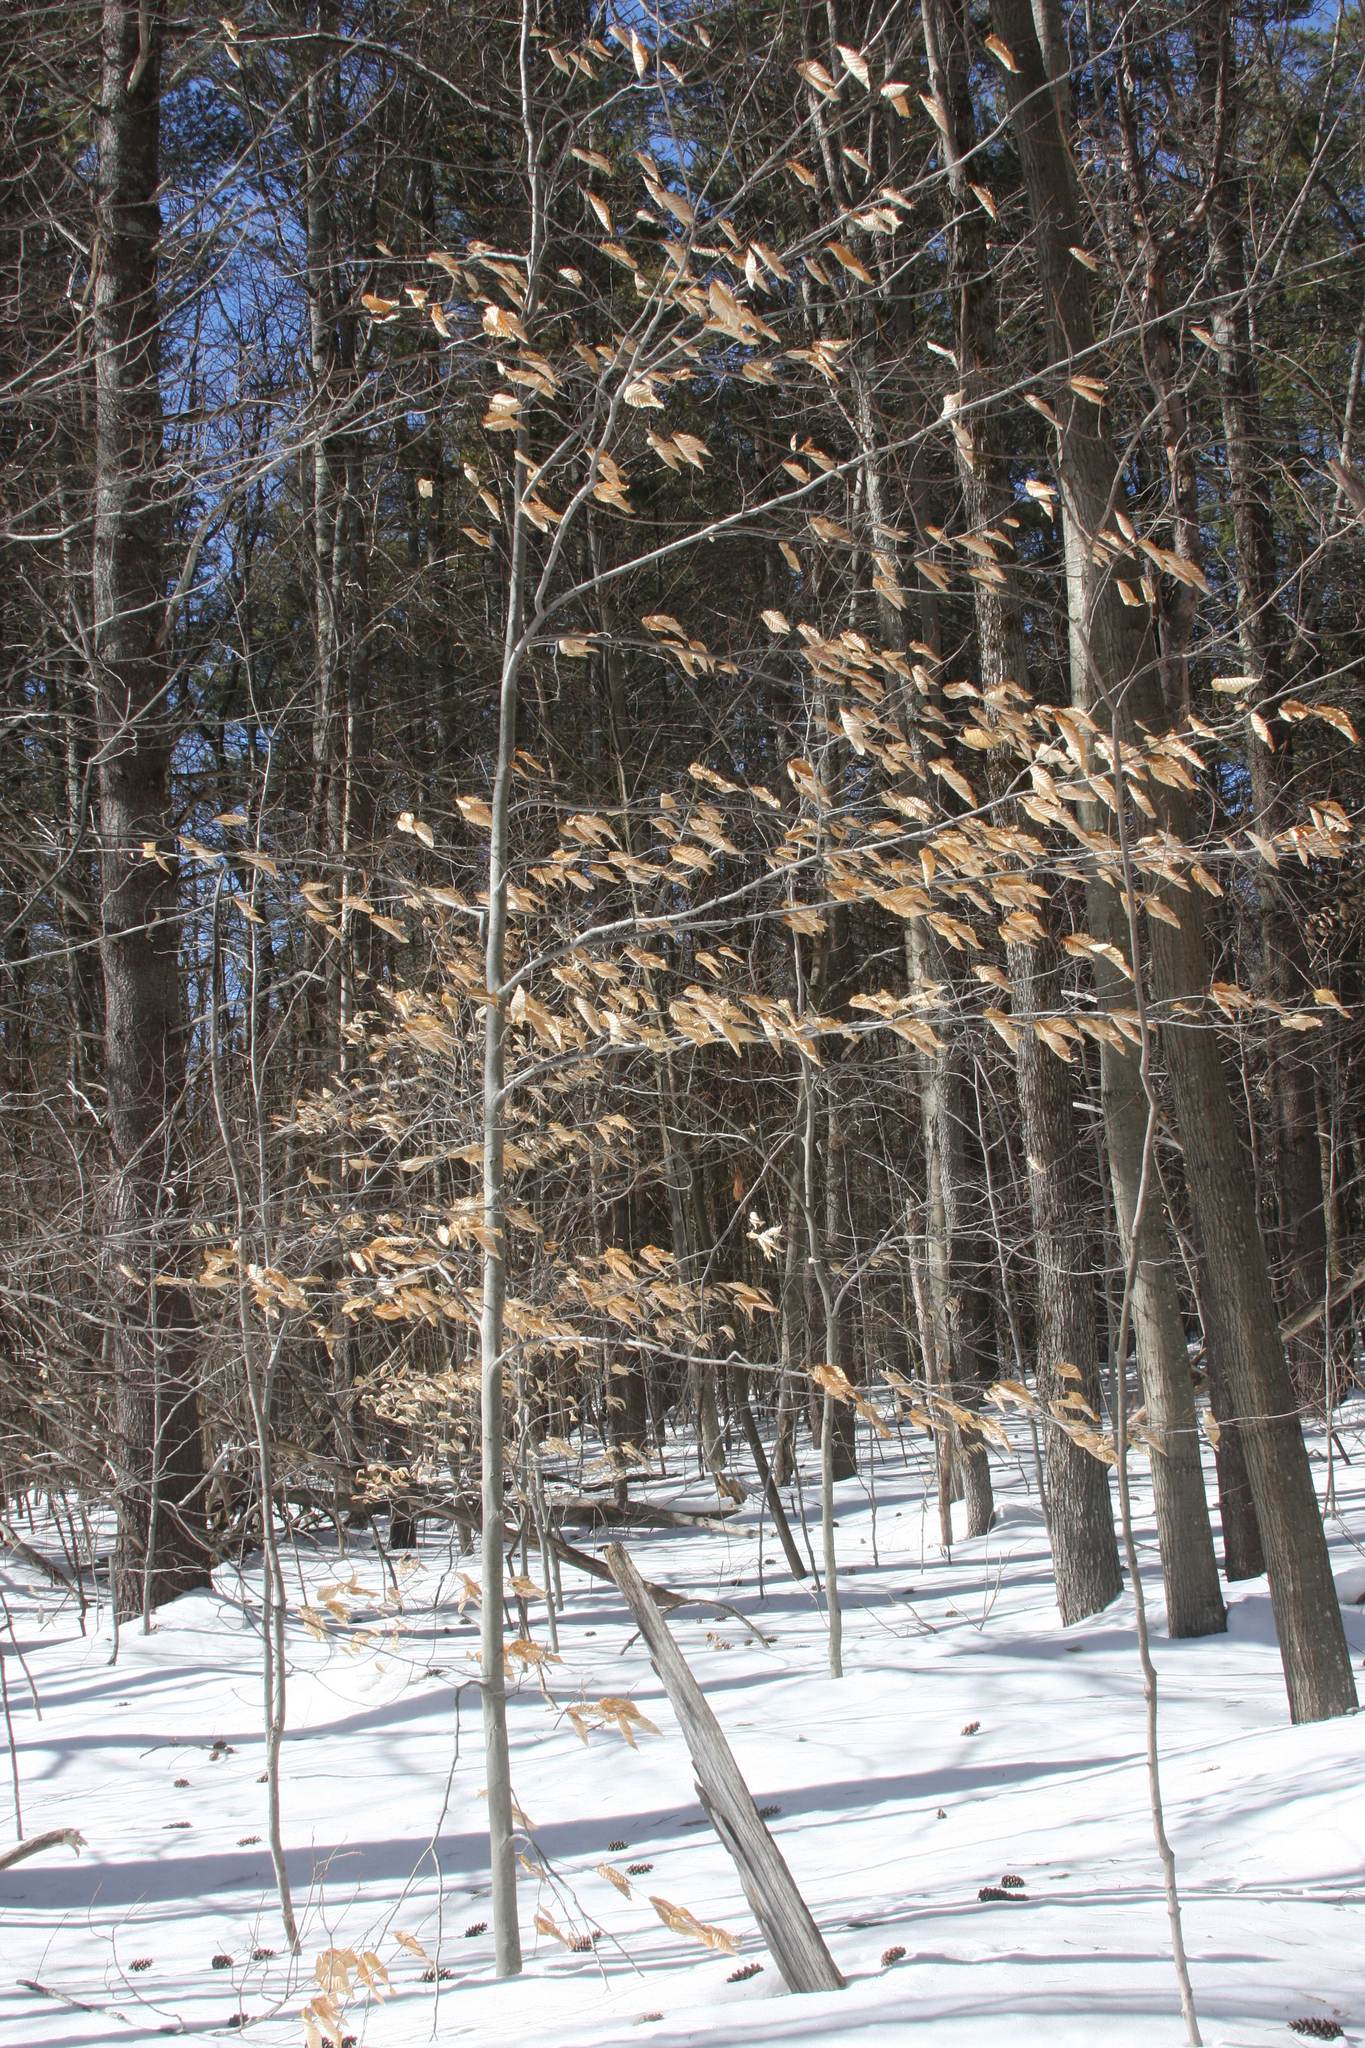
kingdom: Plantae
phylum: Tracheophyta
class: Magnoliopsida
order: Fagales
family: Fagaceae
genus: Fagus
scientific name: Fagus grandifolia
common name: American beech
